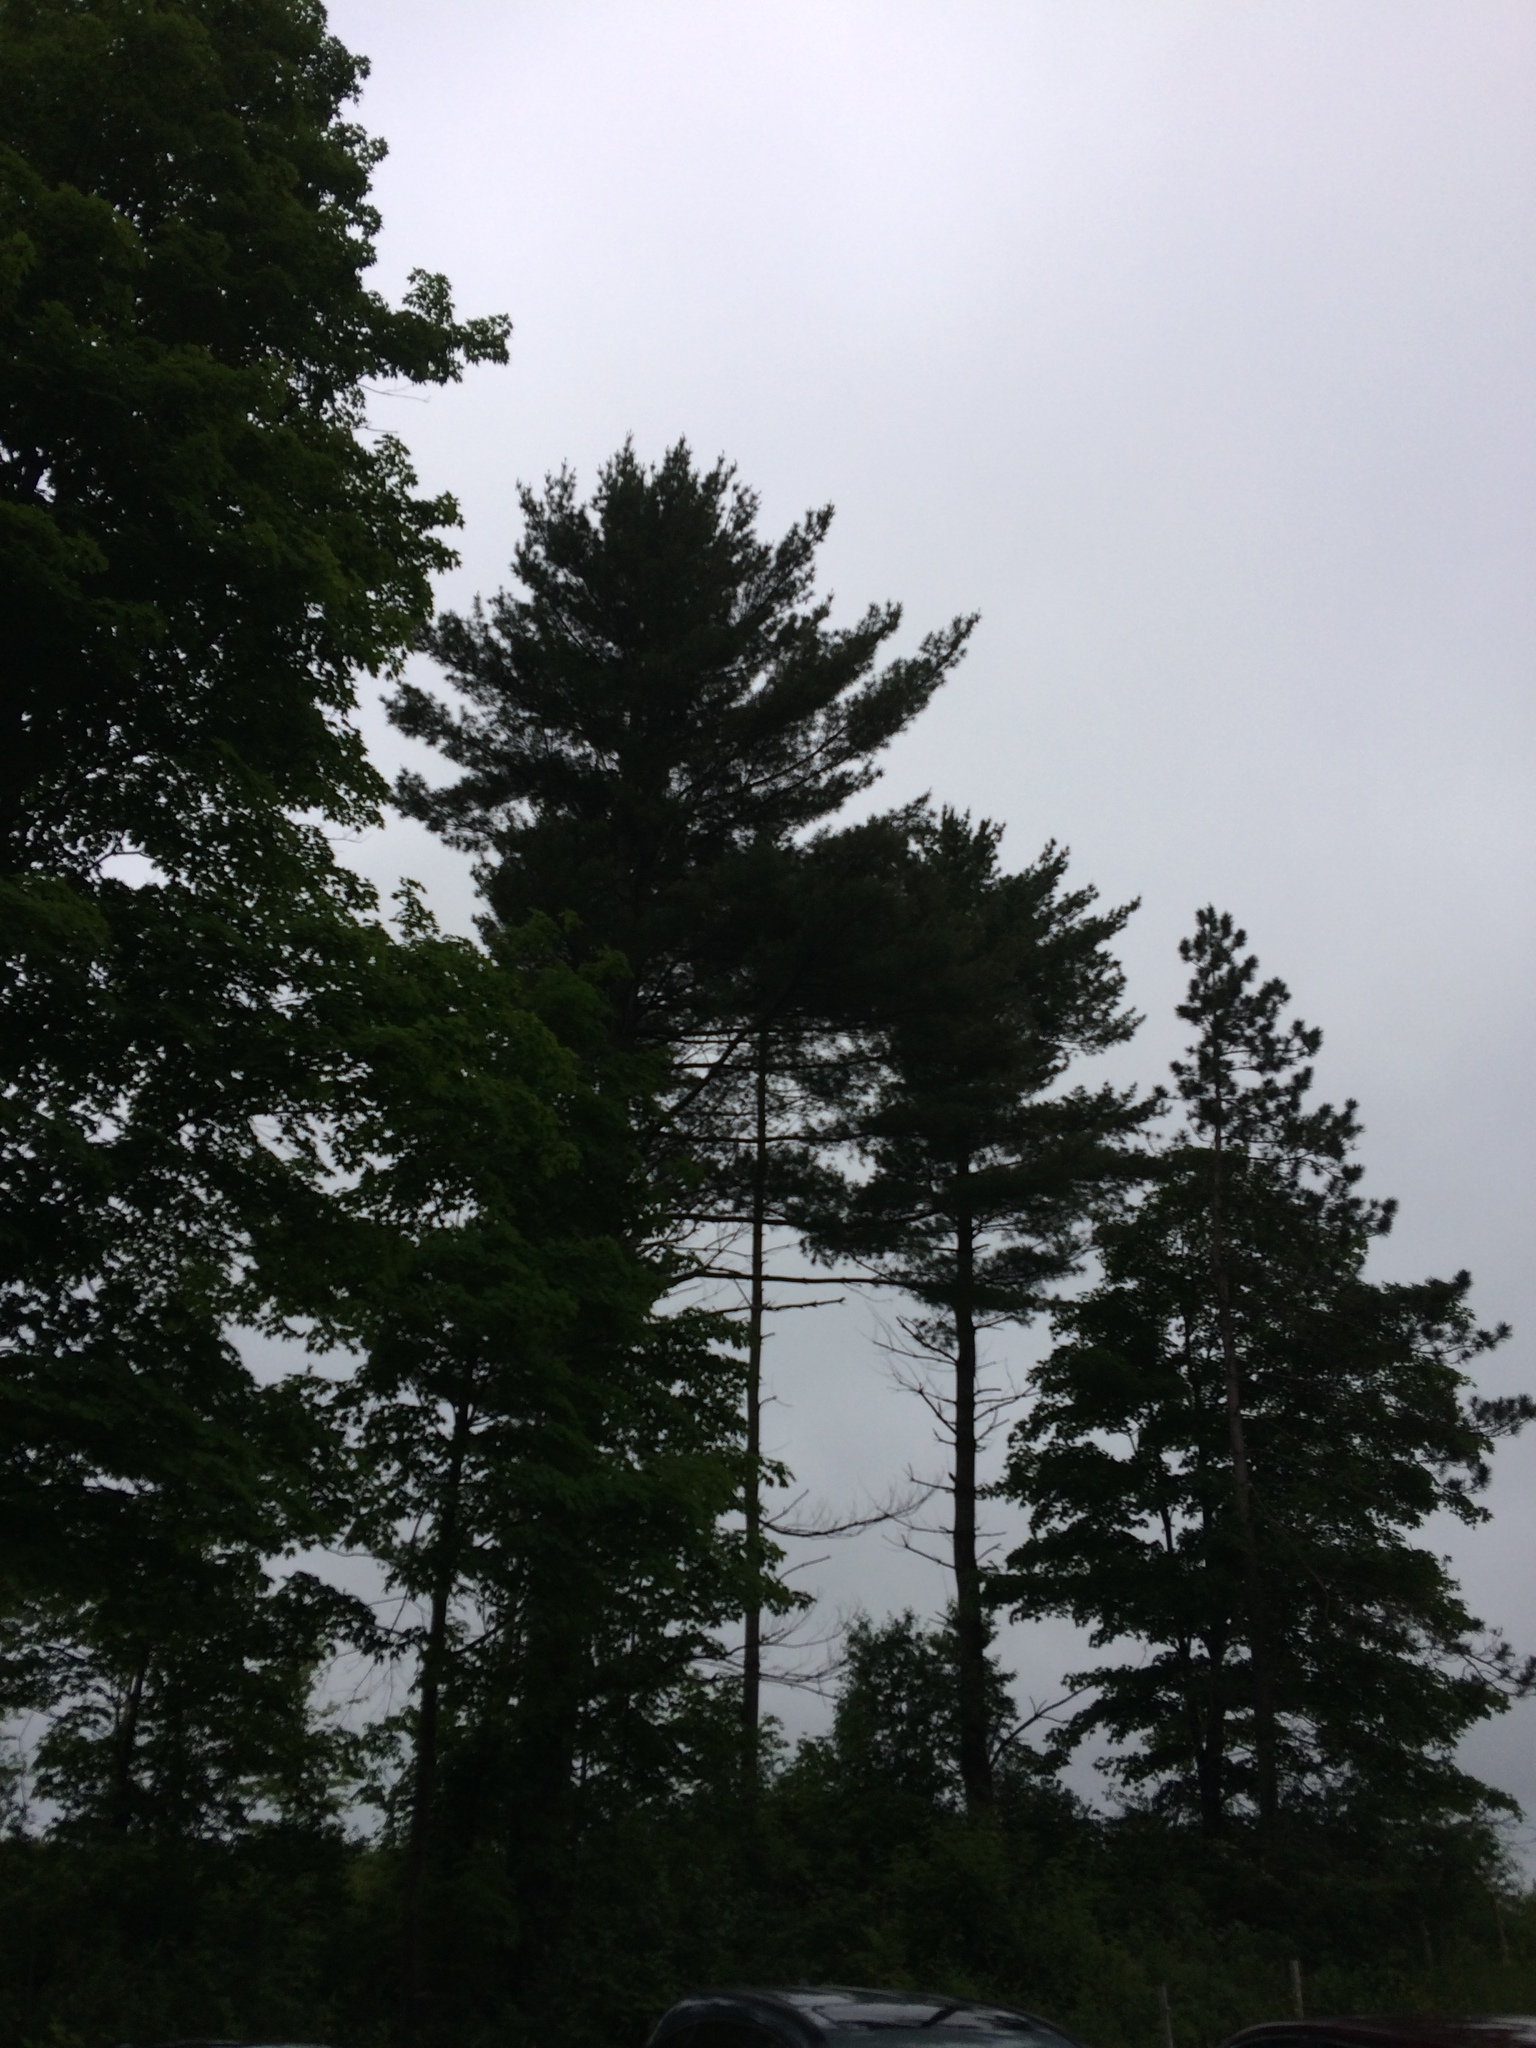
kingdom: Plantae
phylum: Tracheophyta
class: Pinopsida
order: Pinales
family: Pinaceae
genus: Pinus
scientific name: Pinus strobus
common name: Weymouth pine
